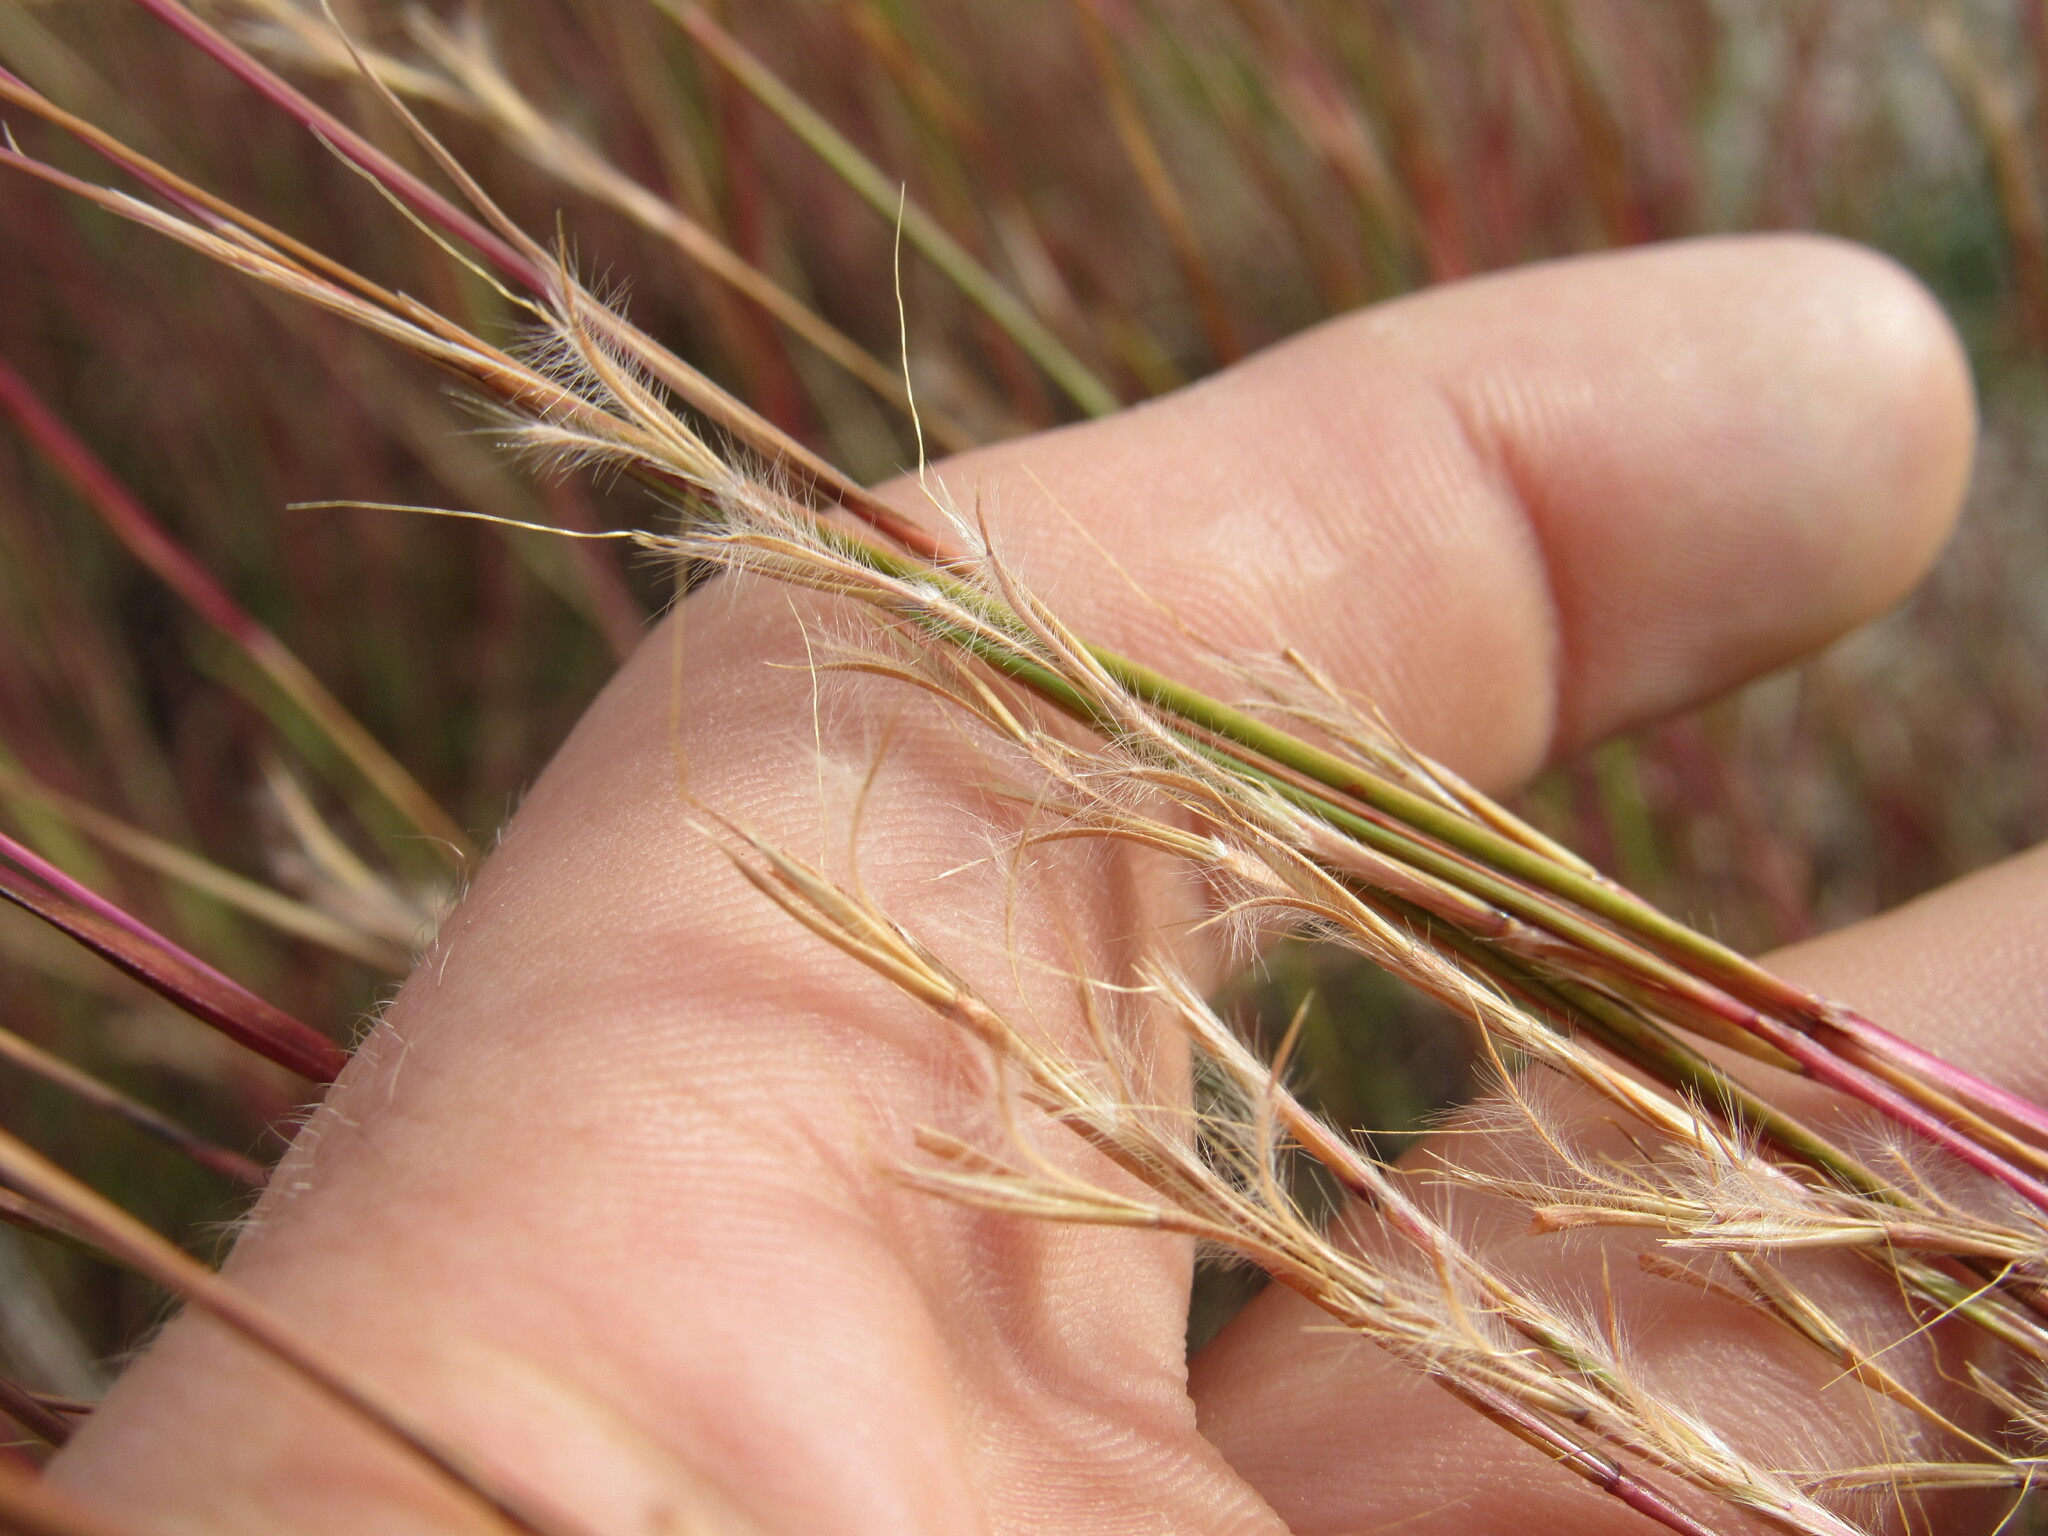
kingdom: Plantae
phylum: Tracheophyta
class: Liliopsida
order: Poales
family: Poaceae
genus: Schizachyrium
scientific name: Schizachyrium scoparium
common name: Little bluestem
